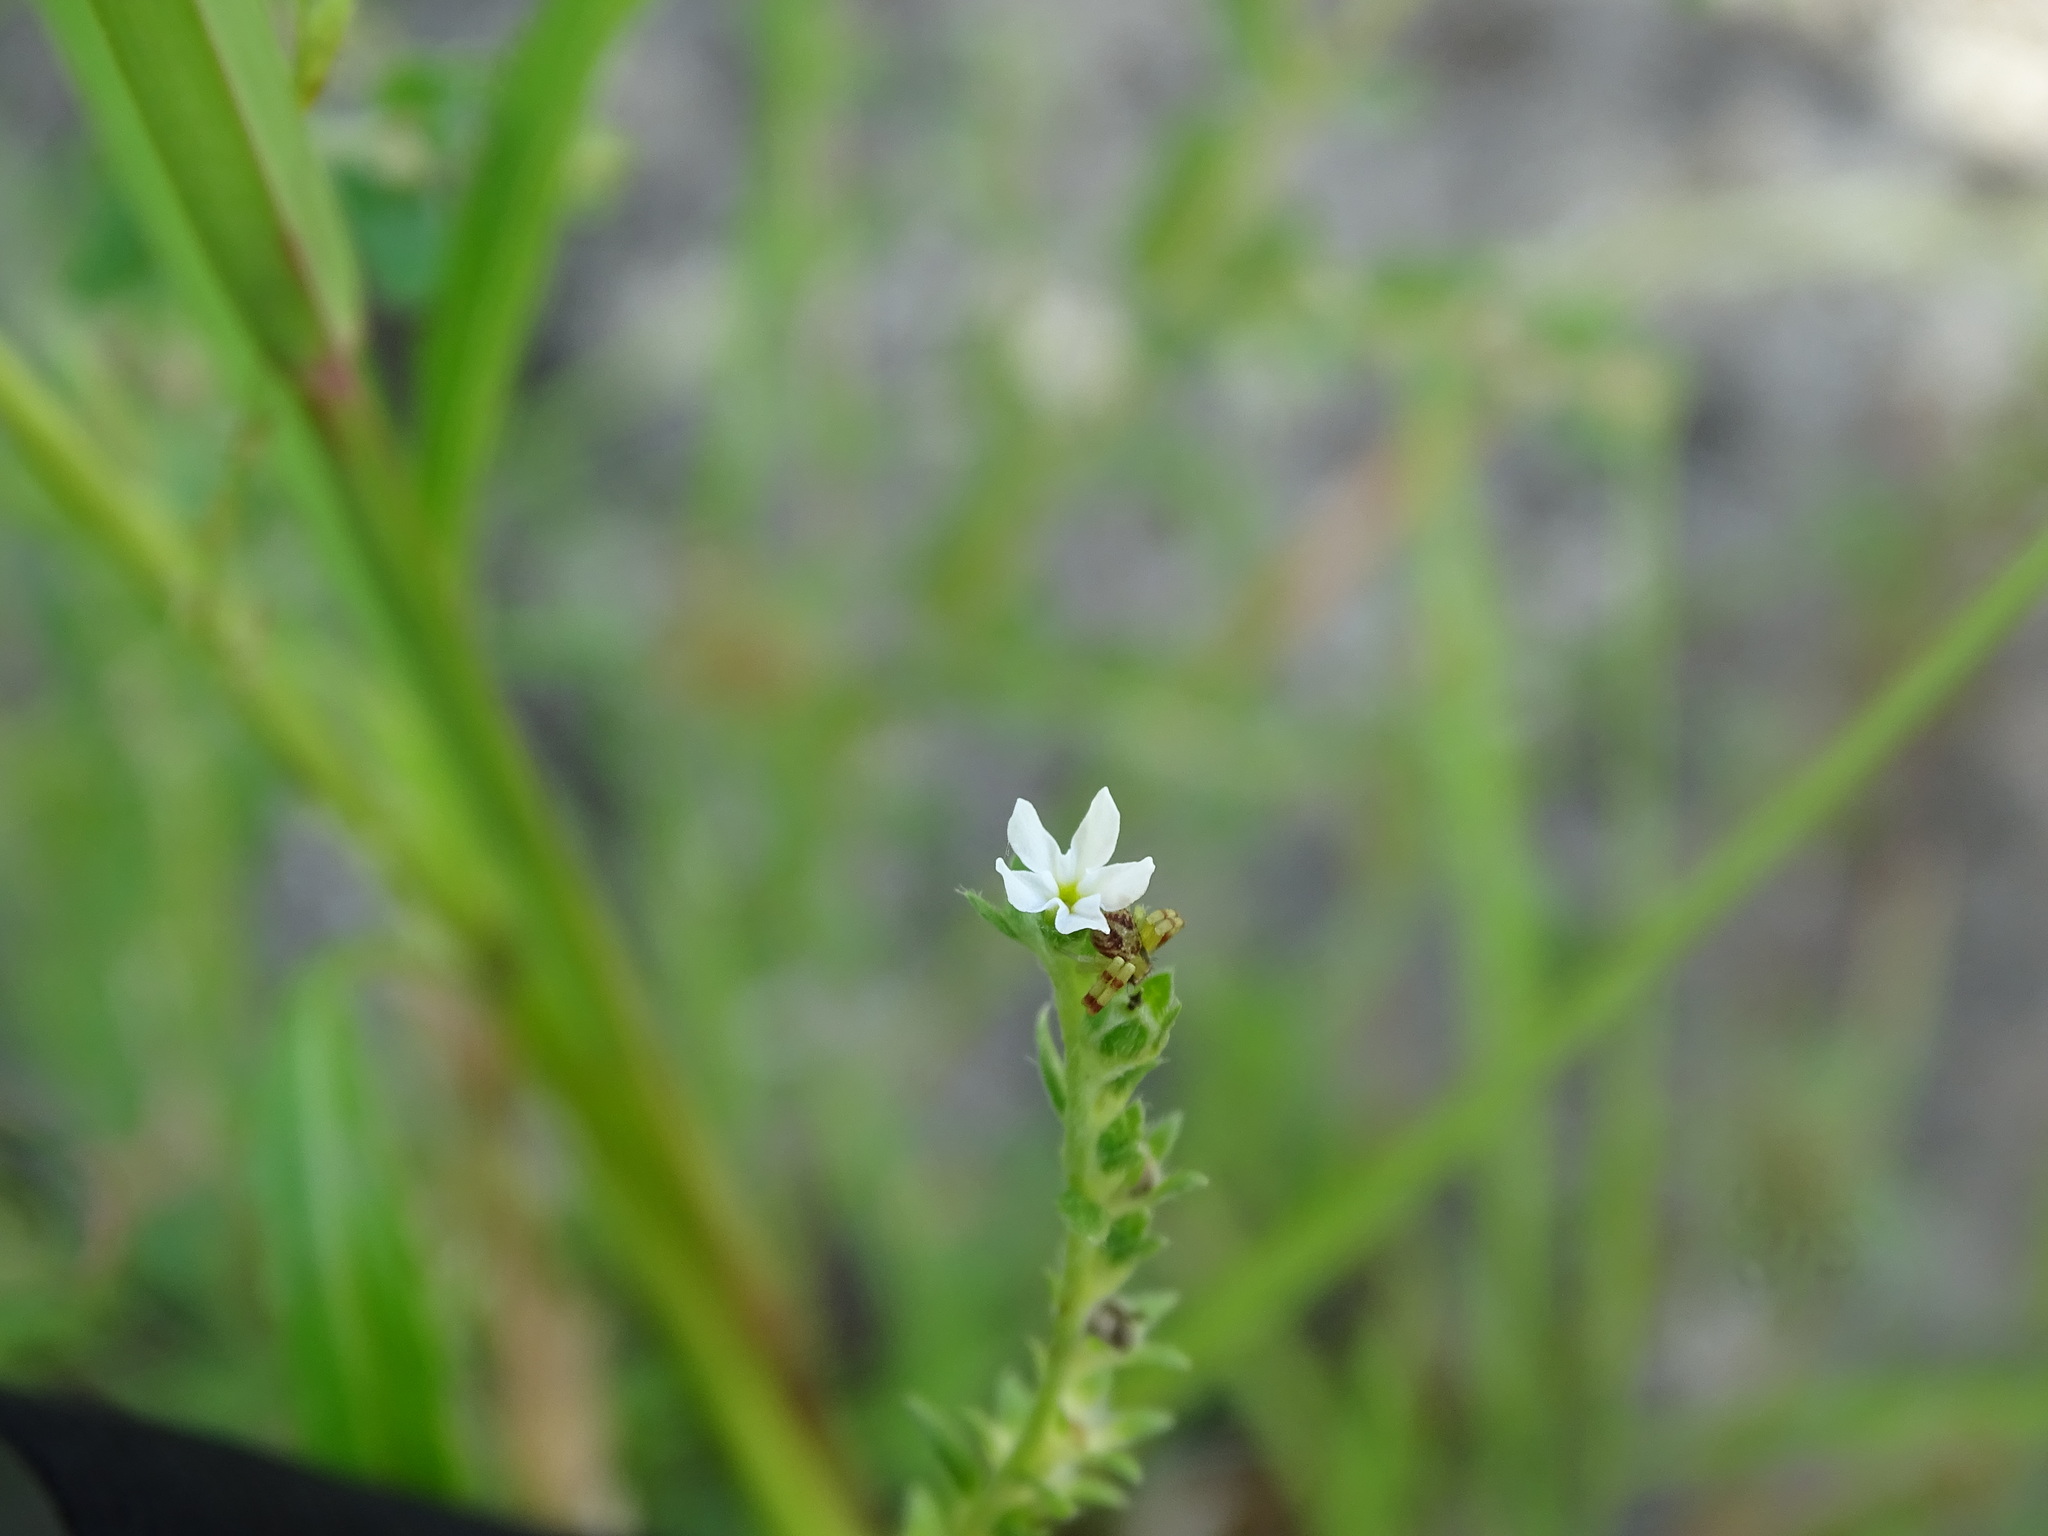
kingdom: Plantae
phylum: Tracheophyta
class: Magnoliopsida
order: Boraginales
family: Heliotropiaceae
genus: Euploca
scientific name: Euploca filiformis
